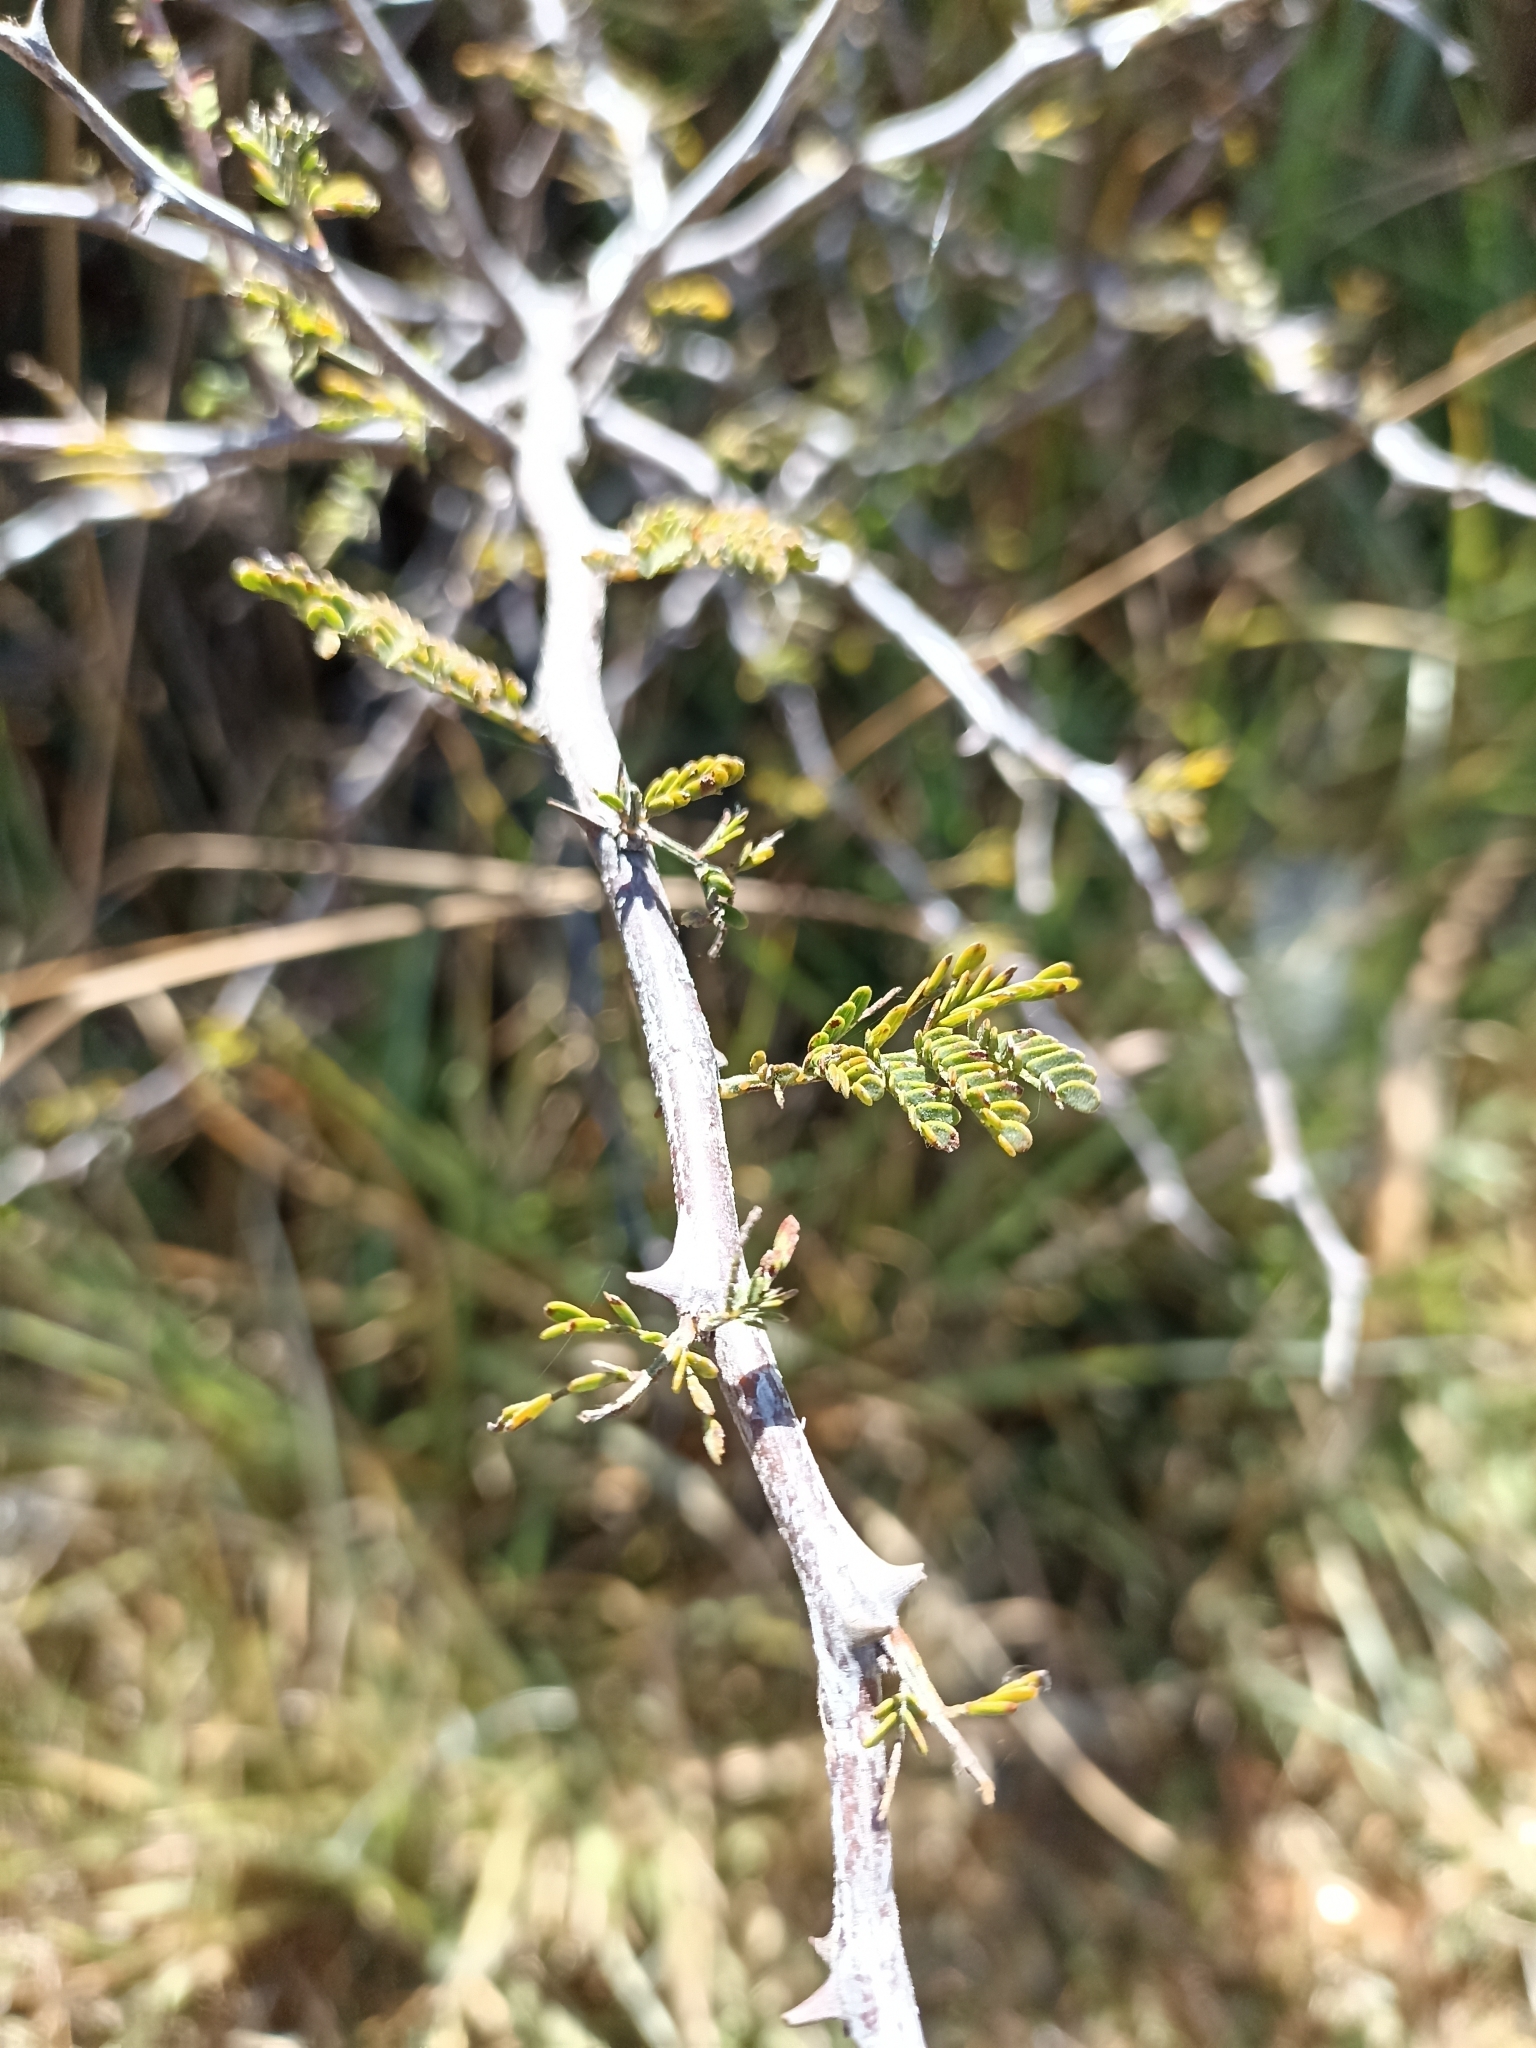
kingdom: Plantae
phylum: Tracheophyta
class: Magnoliopsida
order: Fabales
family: Fabaceae
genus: Vachellia
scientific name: Vachellia farnesiana
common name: Sweet acacia
